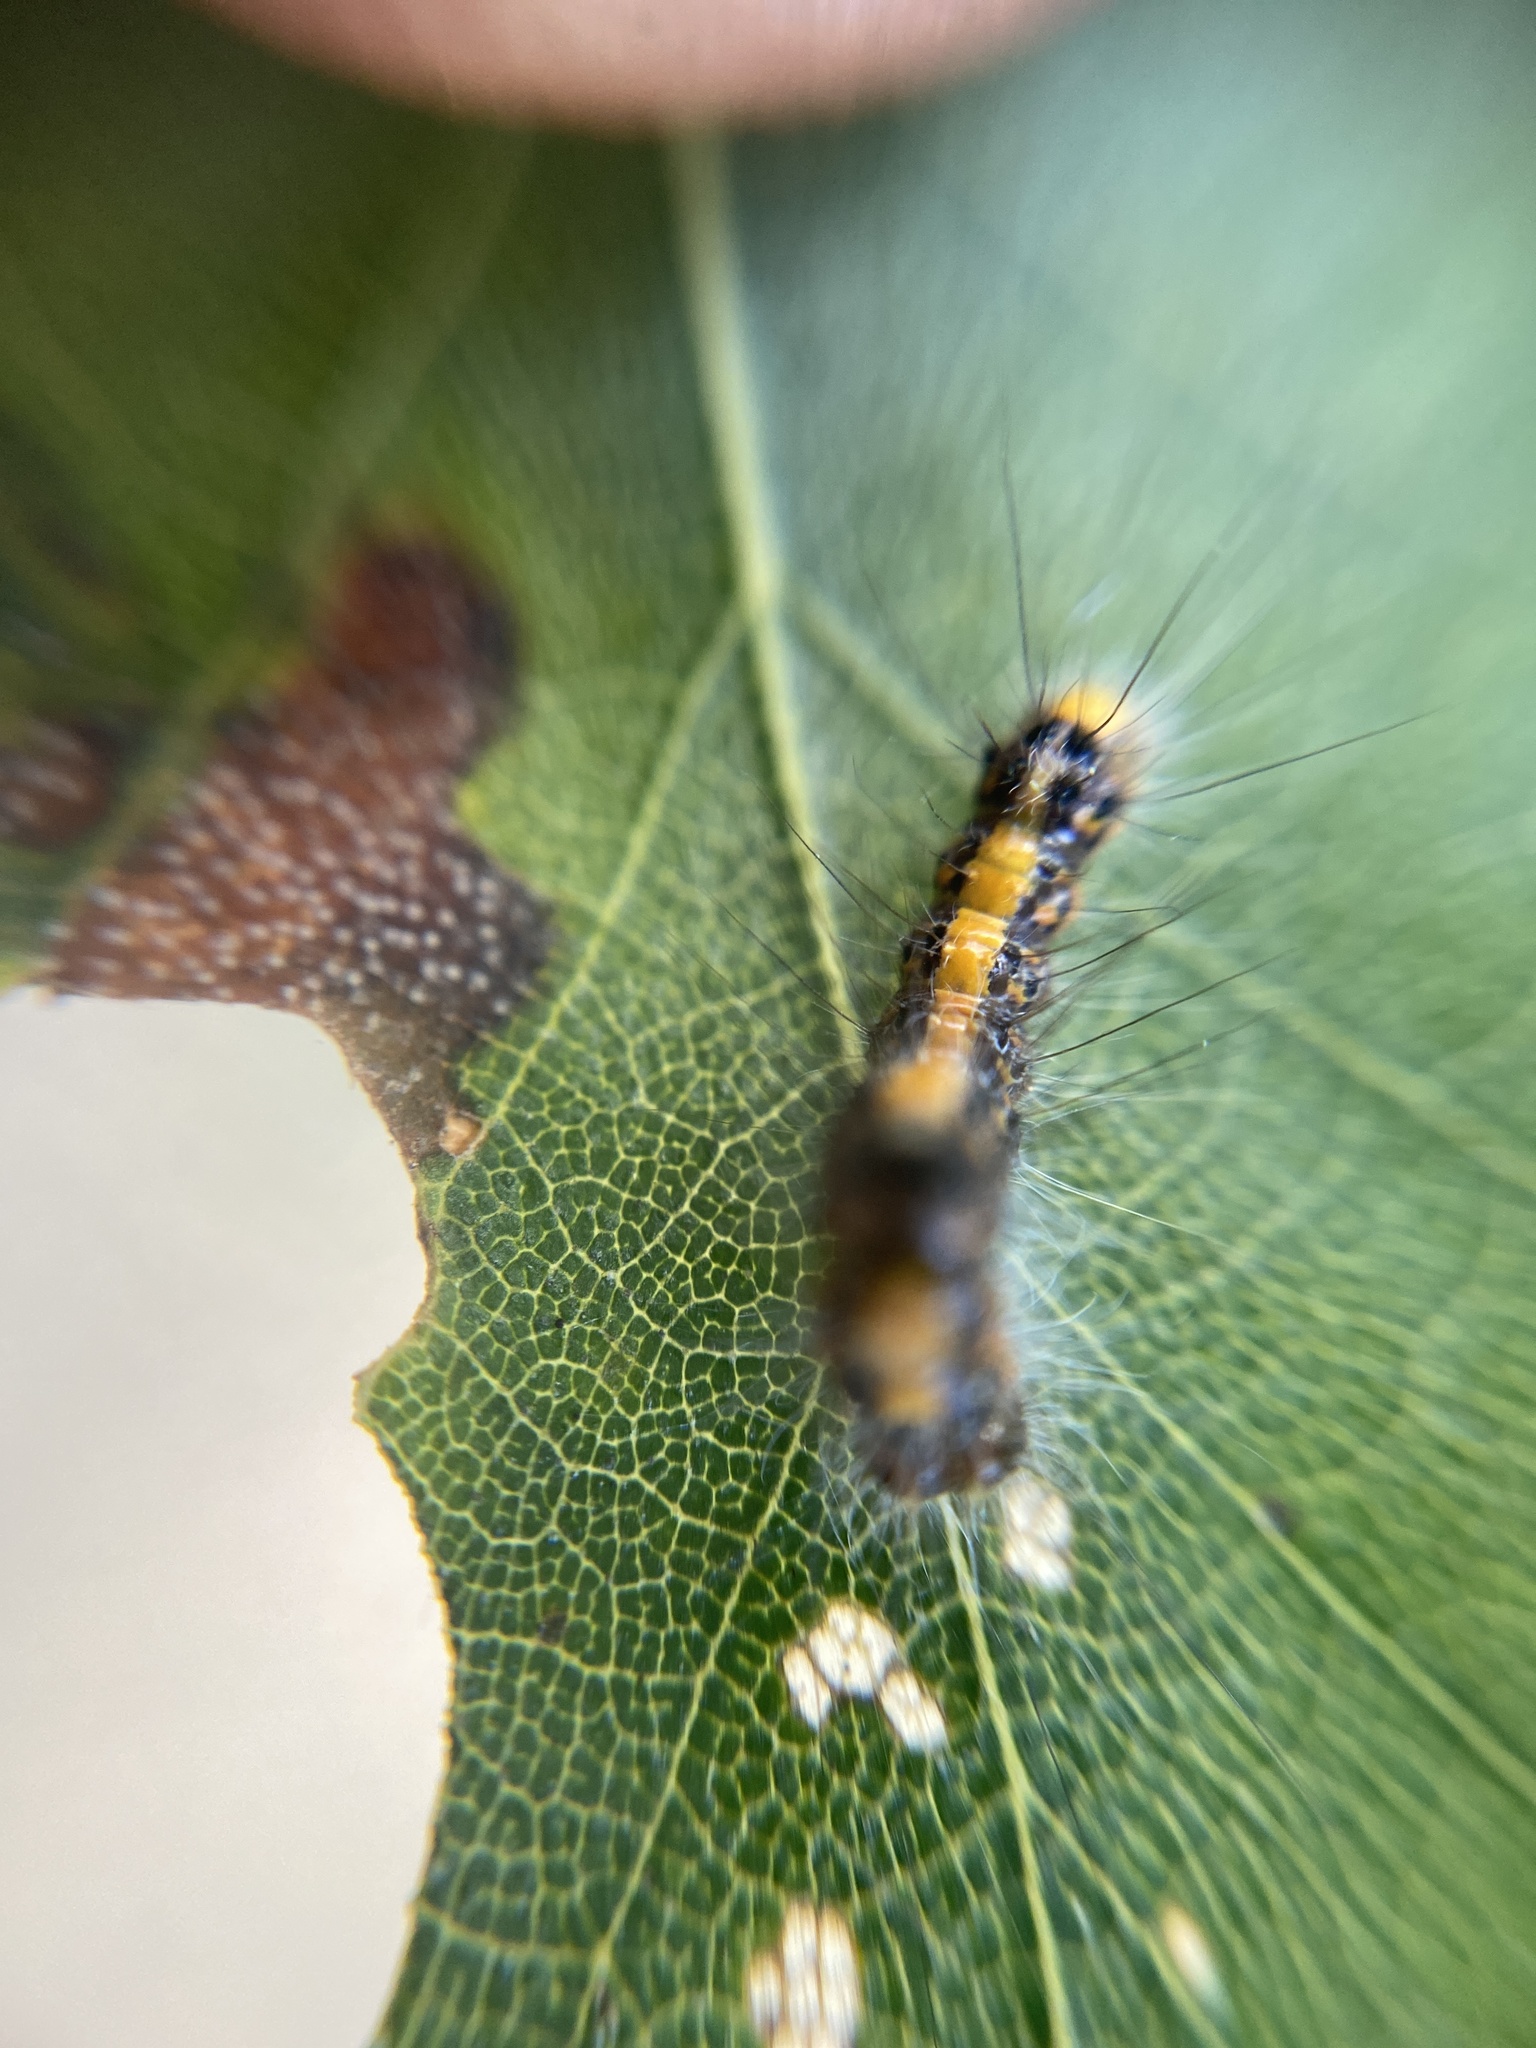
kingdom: Animalia
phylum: Arthropoda
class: Insecta
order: Lepidoptera
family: Noctuidae
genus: Acronicta
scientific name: Acronicta psi
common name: Grey dagger
